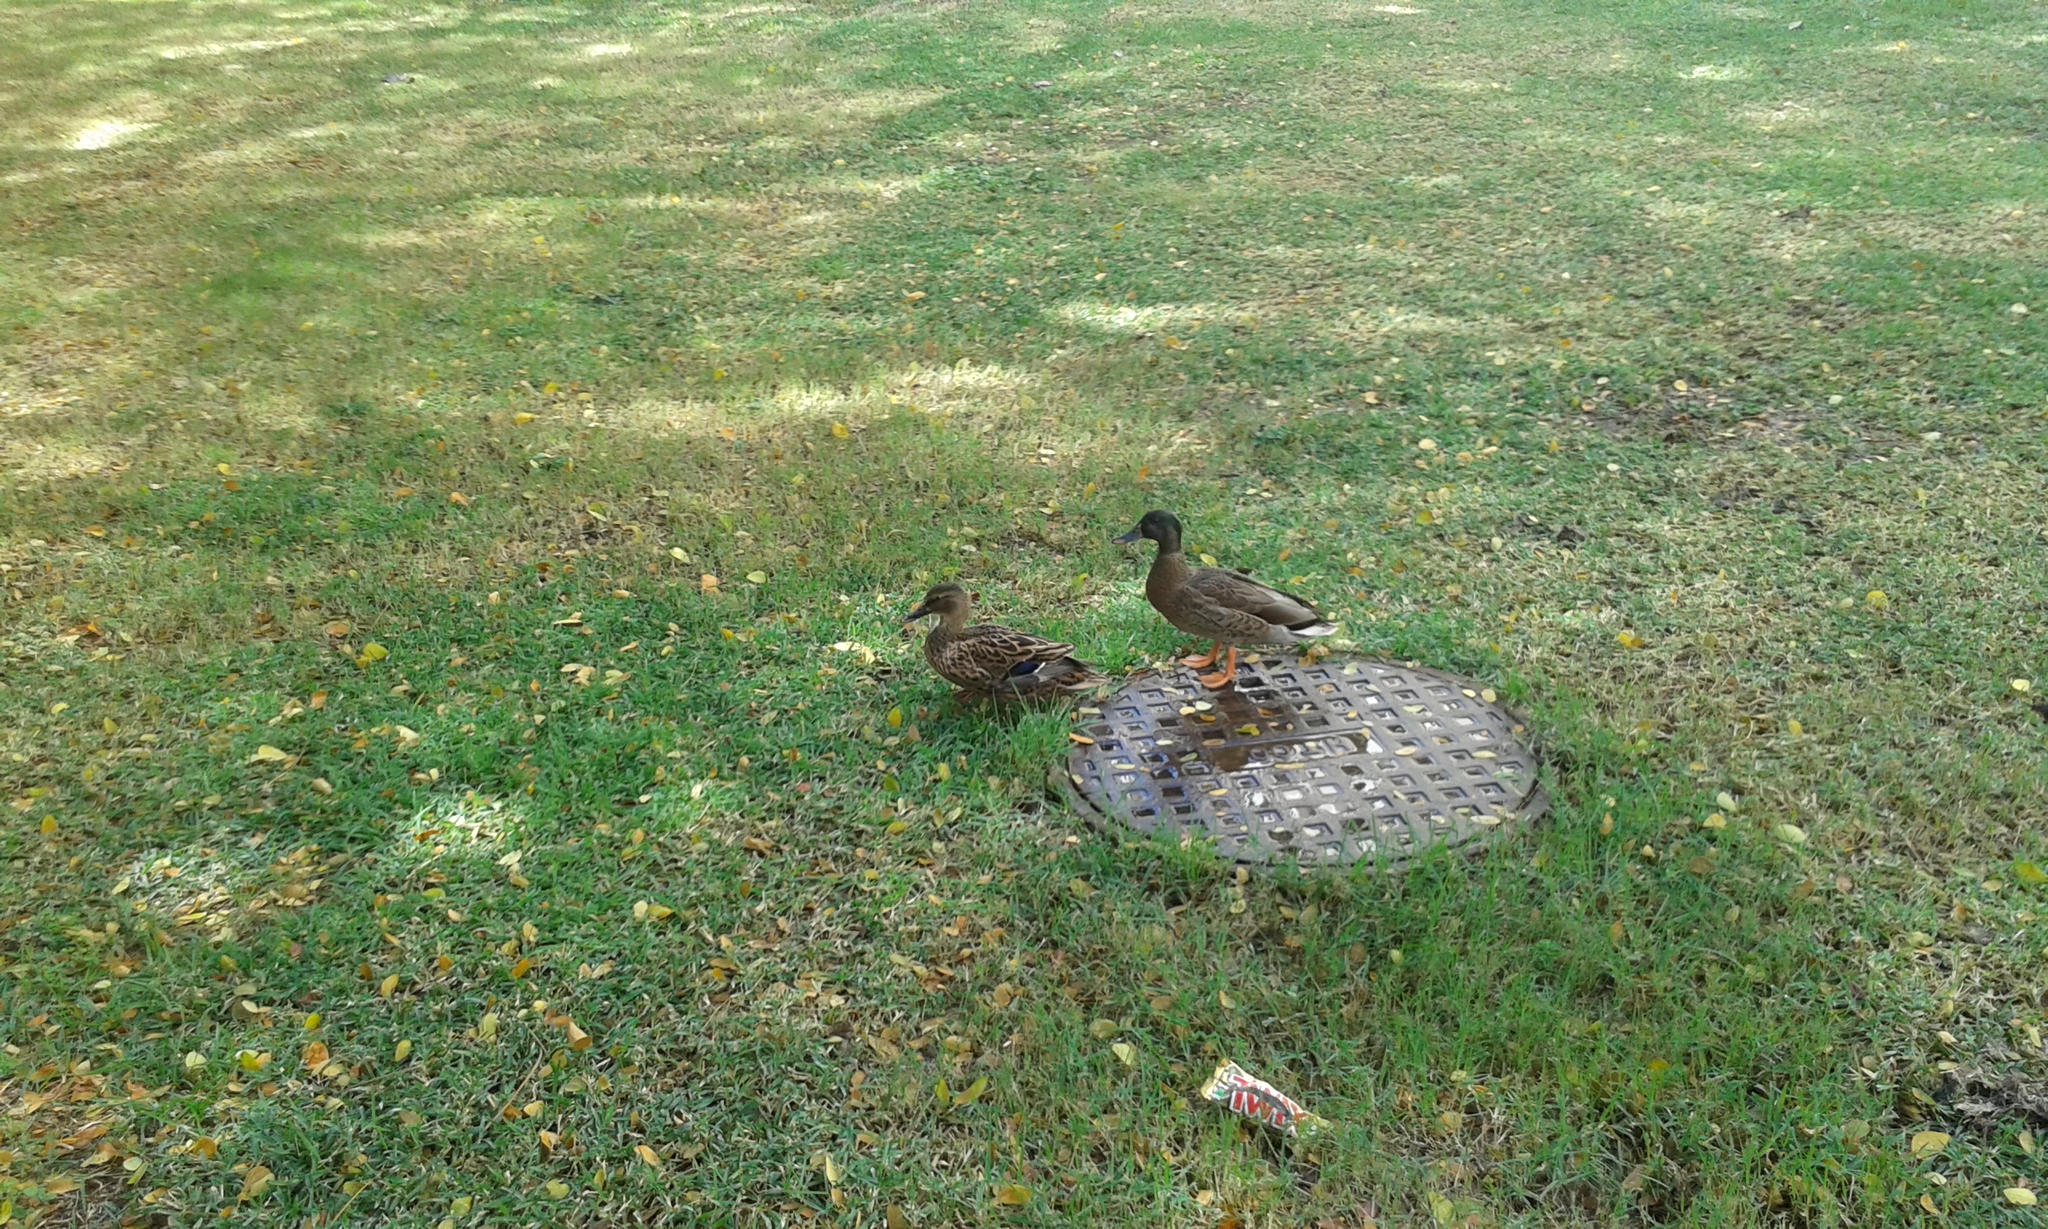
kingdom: Animalia
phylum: Chordata
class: Aves
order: Anseriformes
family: Anatidae
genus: Anas
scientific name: Anas
